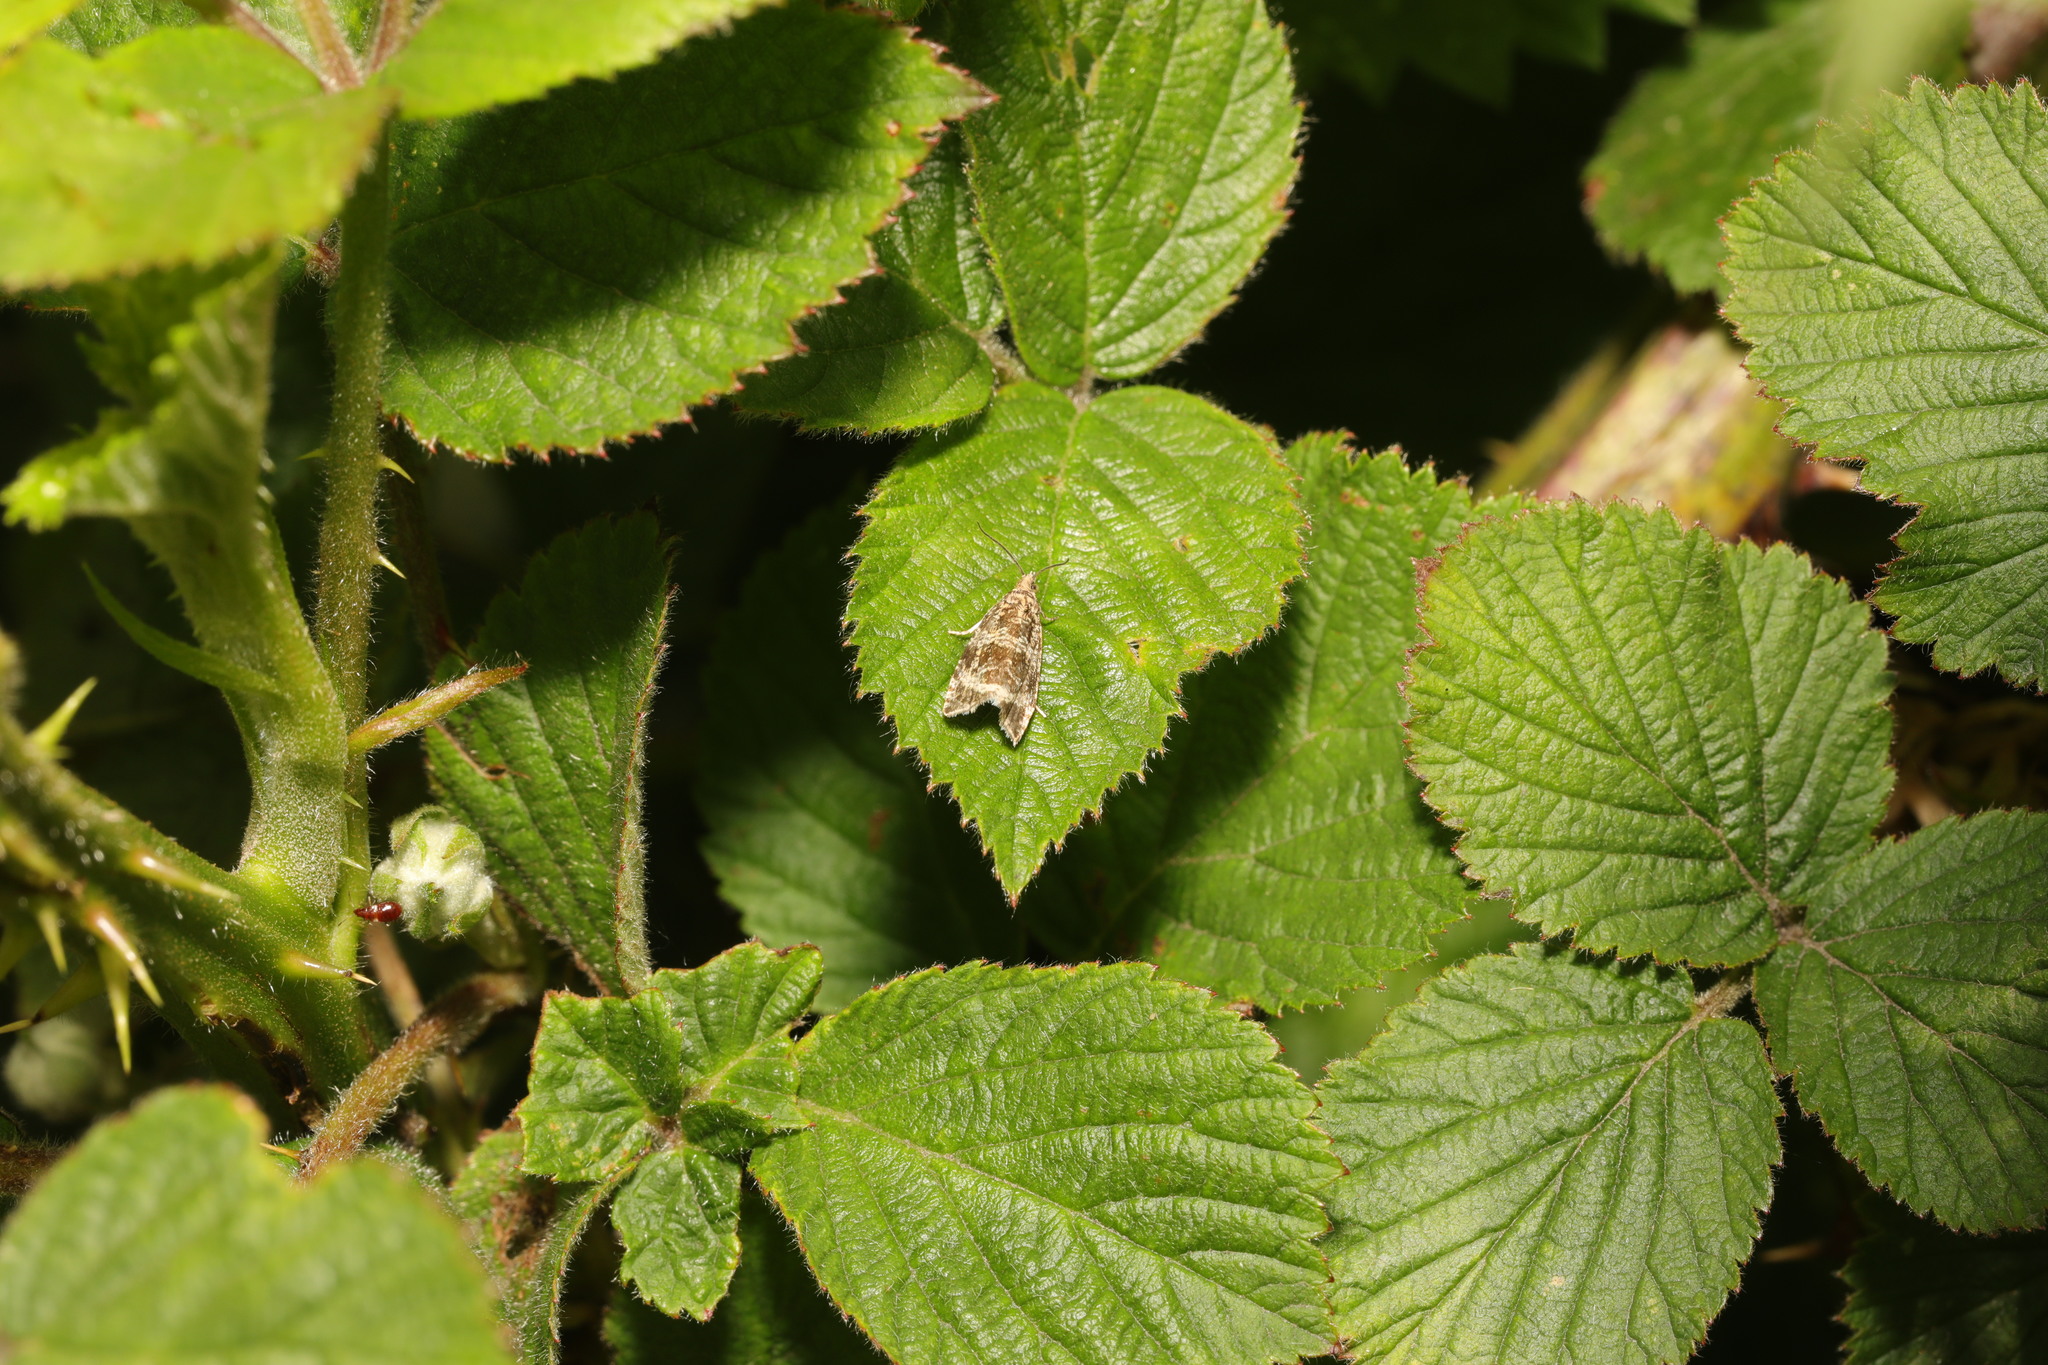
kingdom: Animalia
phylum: Arthropoda
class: Insecta
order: Lepidoptera
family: Tortricidae
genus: Syricoris
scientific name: Syricoris lacunana
